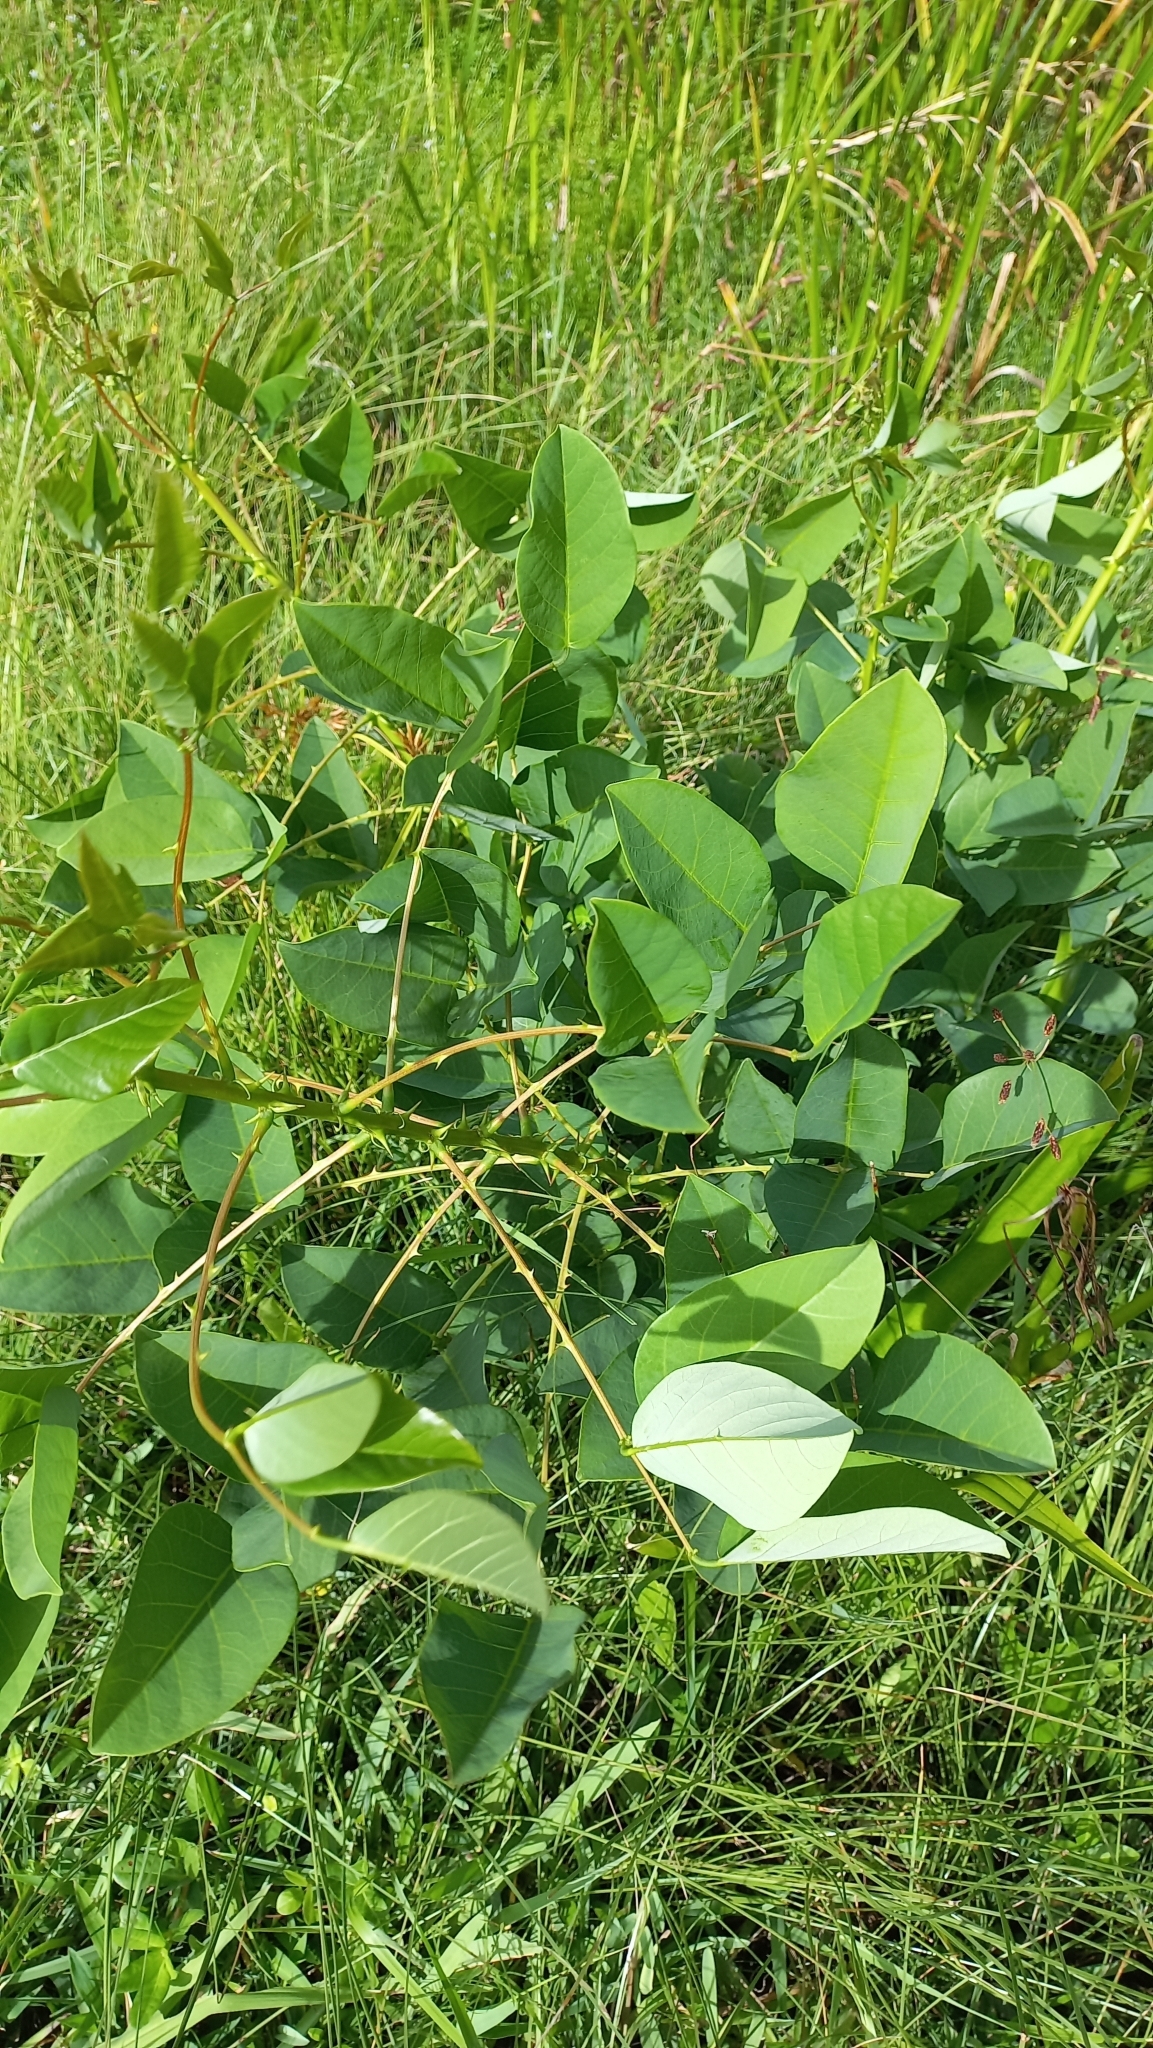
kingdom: Plantae
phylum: Tracheophyta
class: Magnoliopsida
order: Fabales
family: Fabaceae
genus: Erythrina
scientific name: Erythrina crista-galli
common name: Cockspur coral tree
